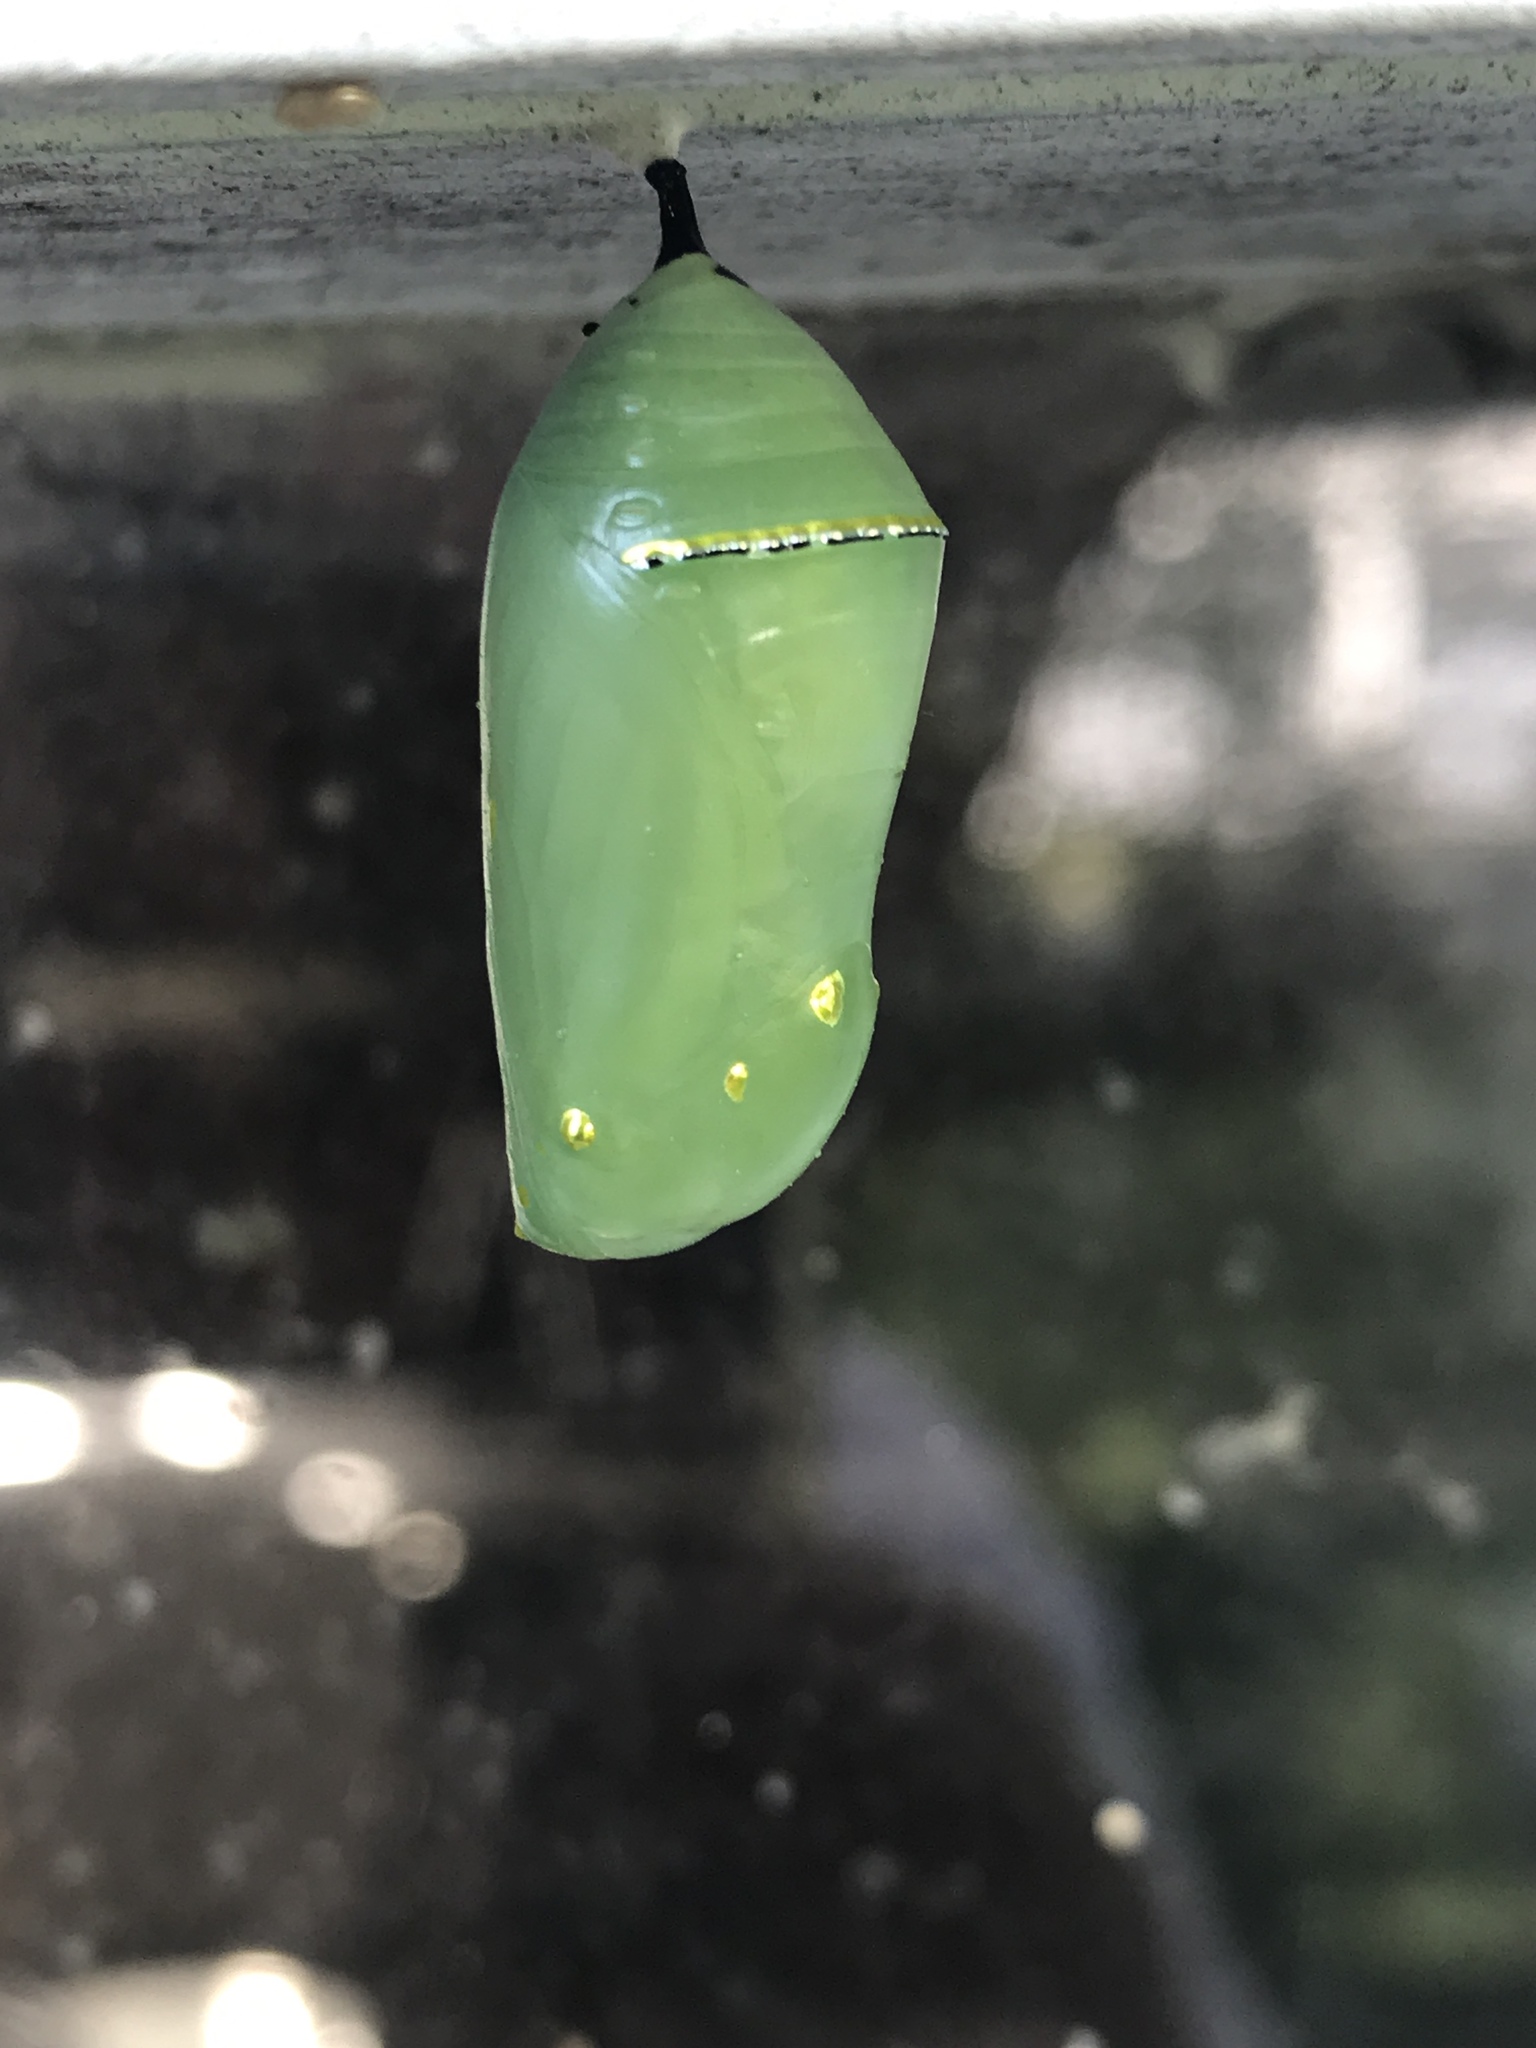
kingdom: Animalia
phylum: Arthropoda
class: Insecta
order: Lepidoptera
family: Nymphalidae
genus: Danaus
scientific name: Danaus plexippus
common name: Monarch
